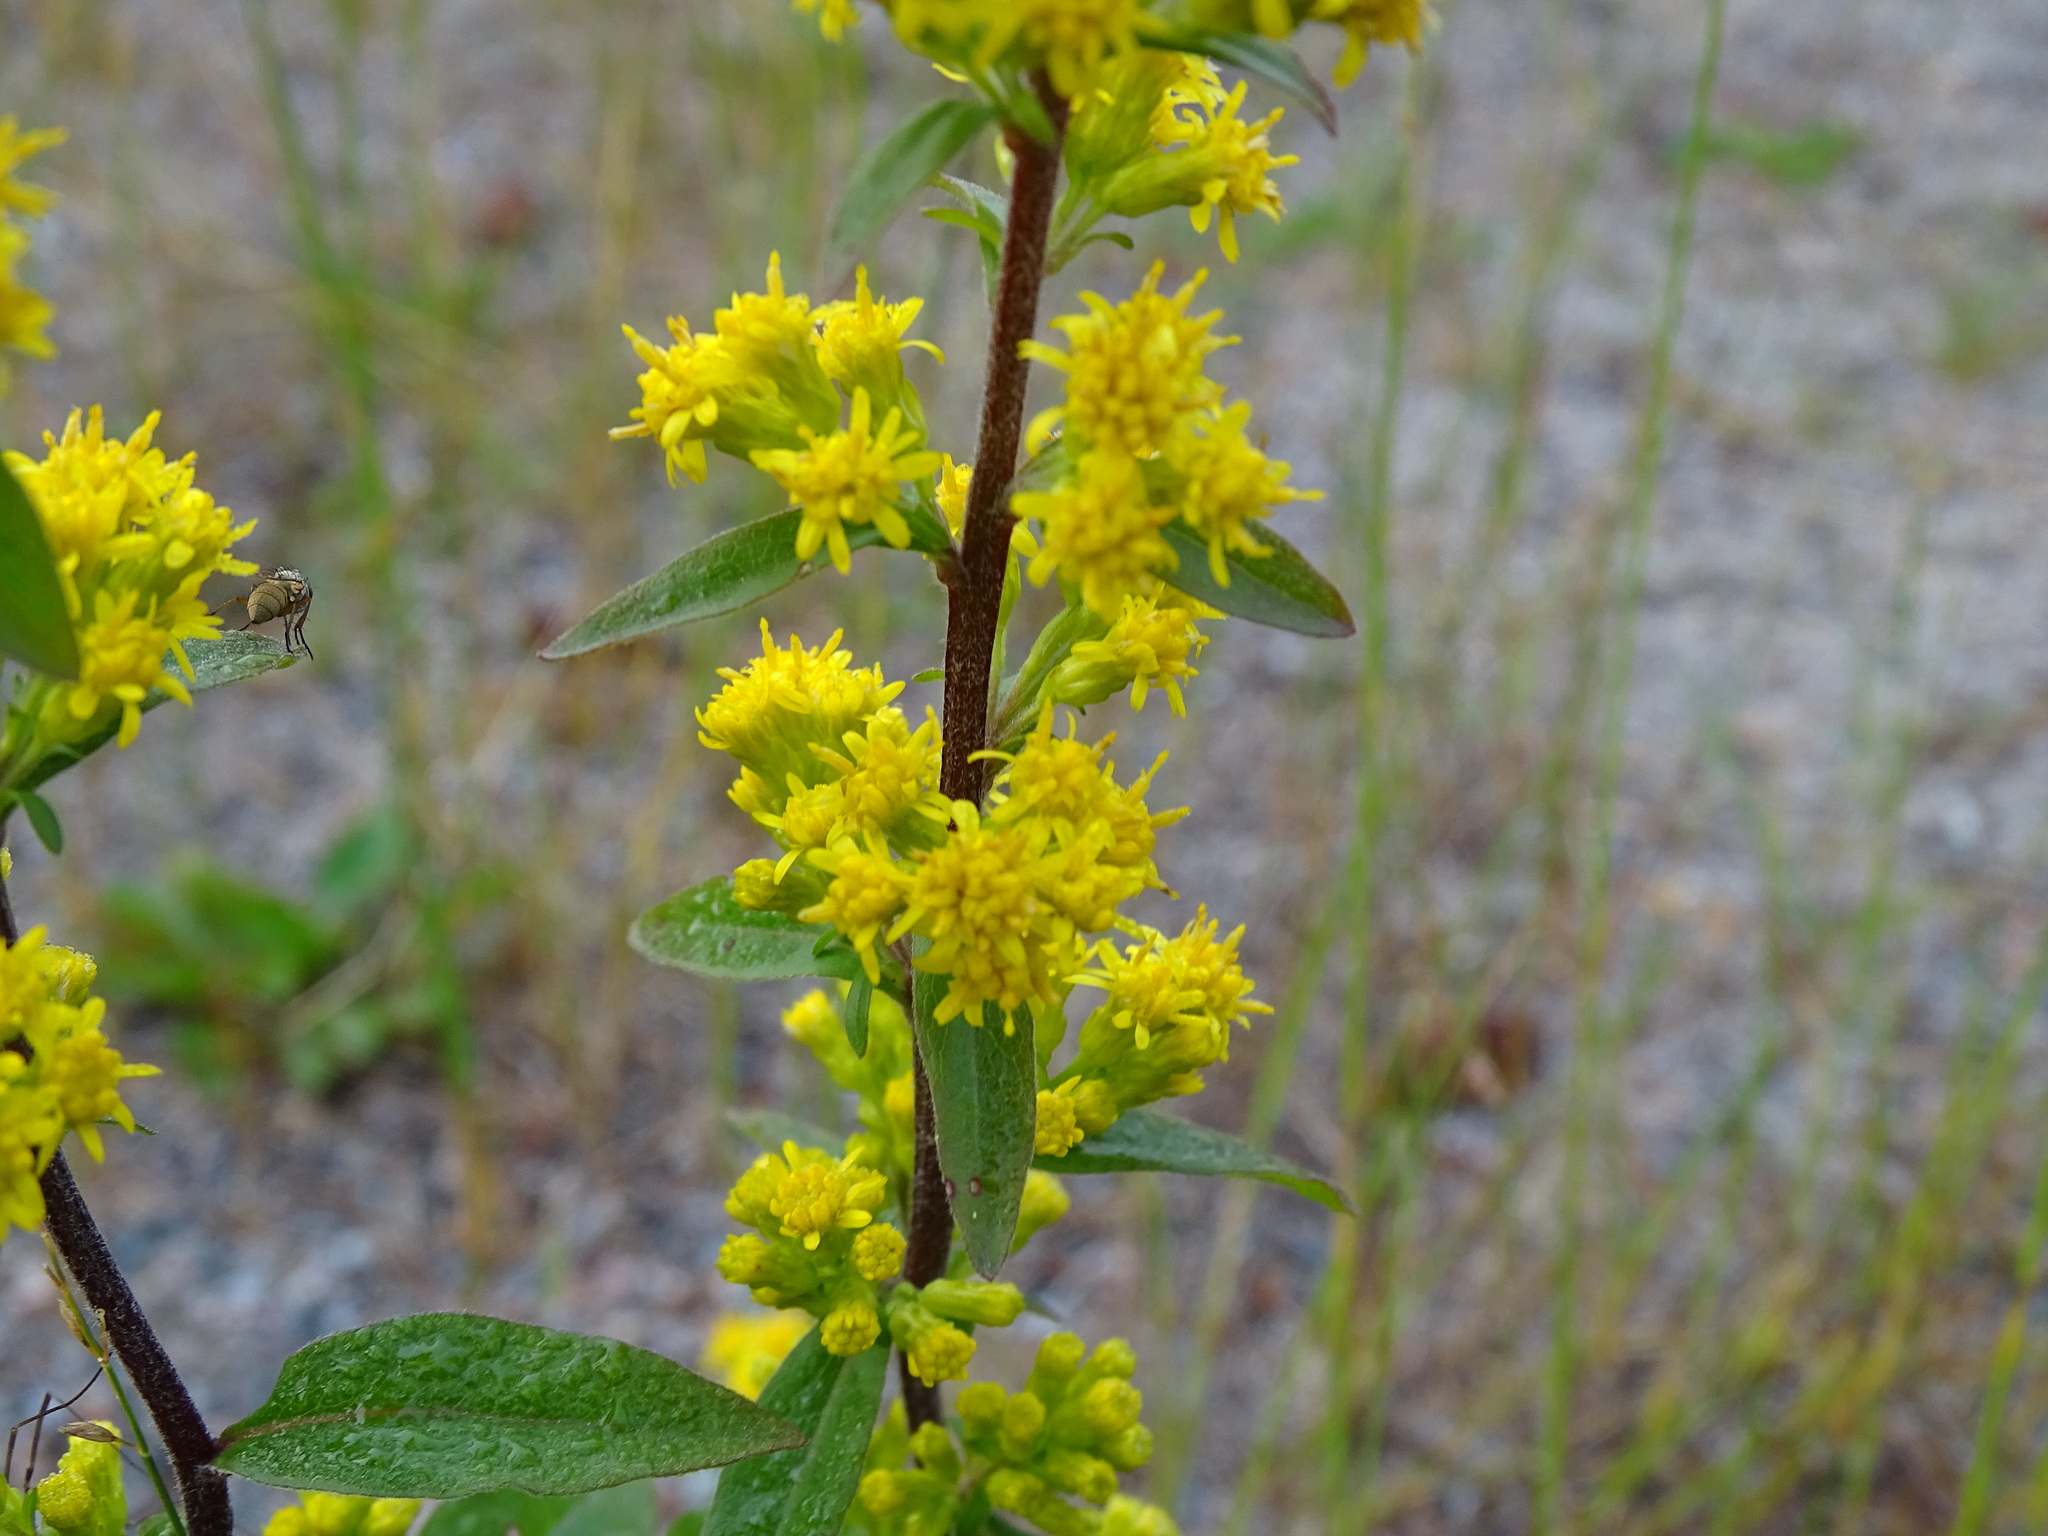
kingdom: Plantae
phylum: Tracheophyta
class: Magnoliopsida
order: Asterales
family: Asteraceae
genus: Solidago
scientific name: Solidago hispida
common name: Hairy goldenrod
